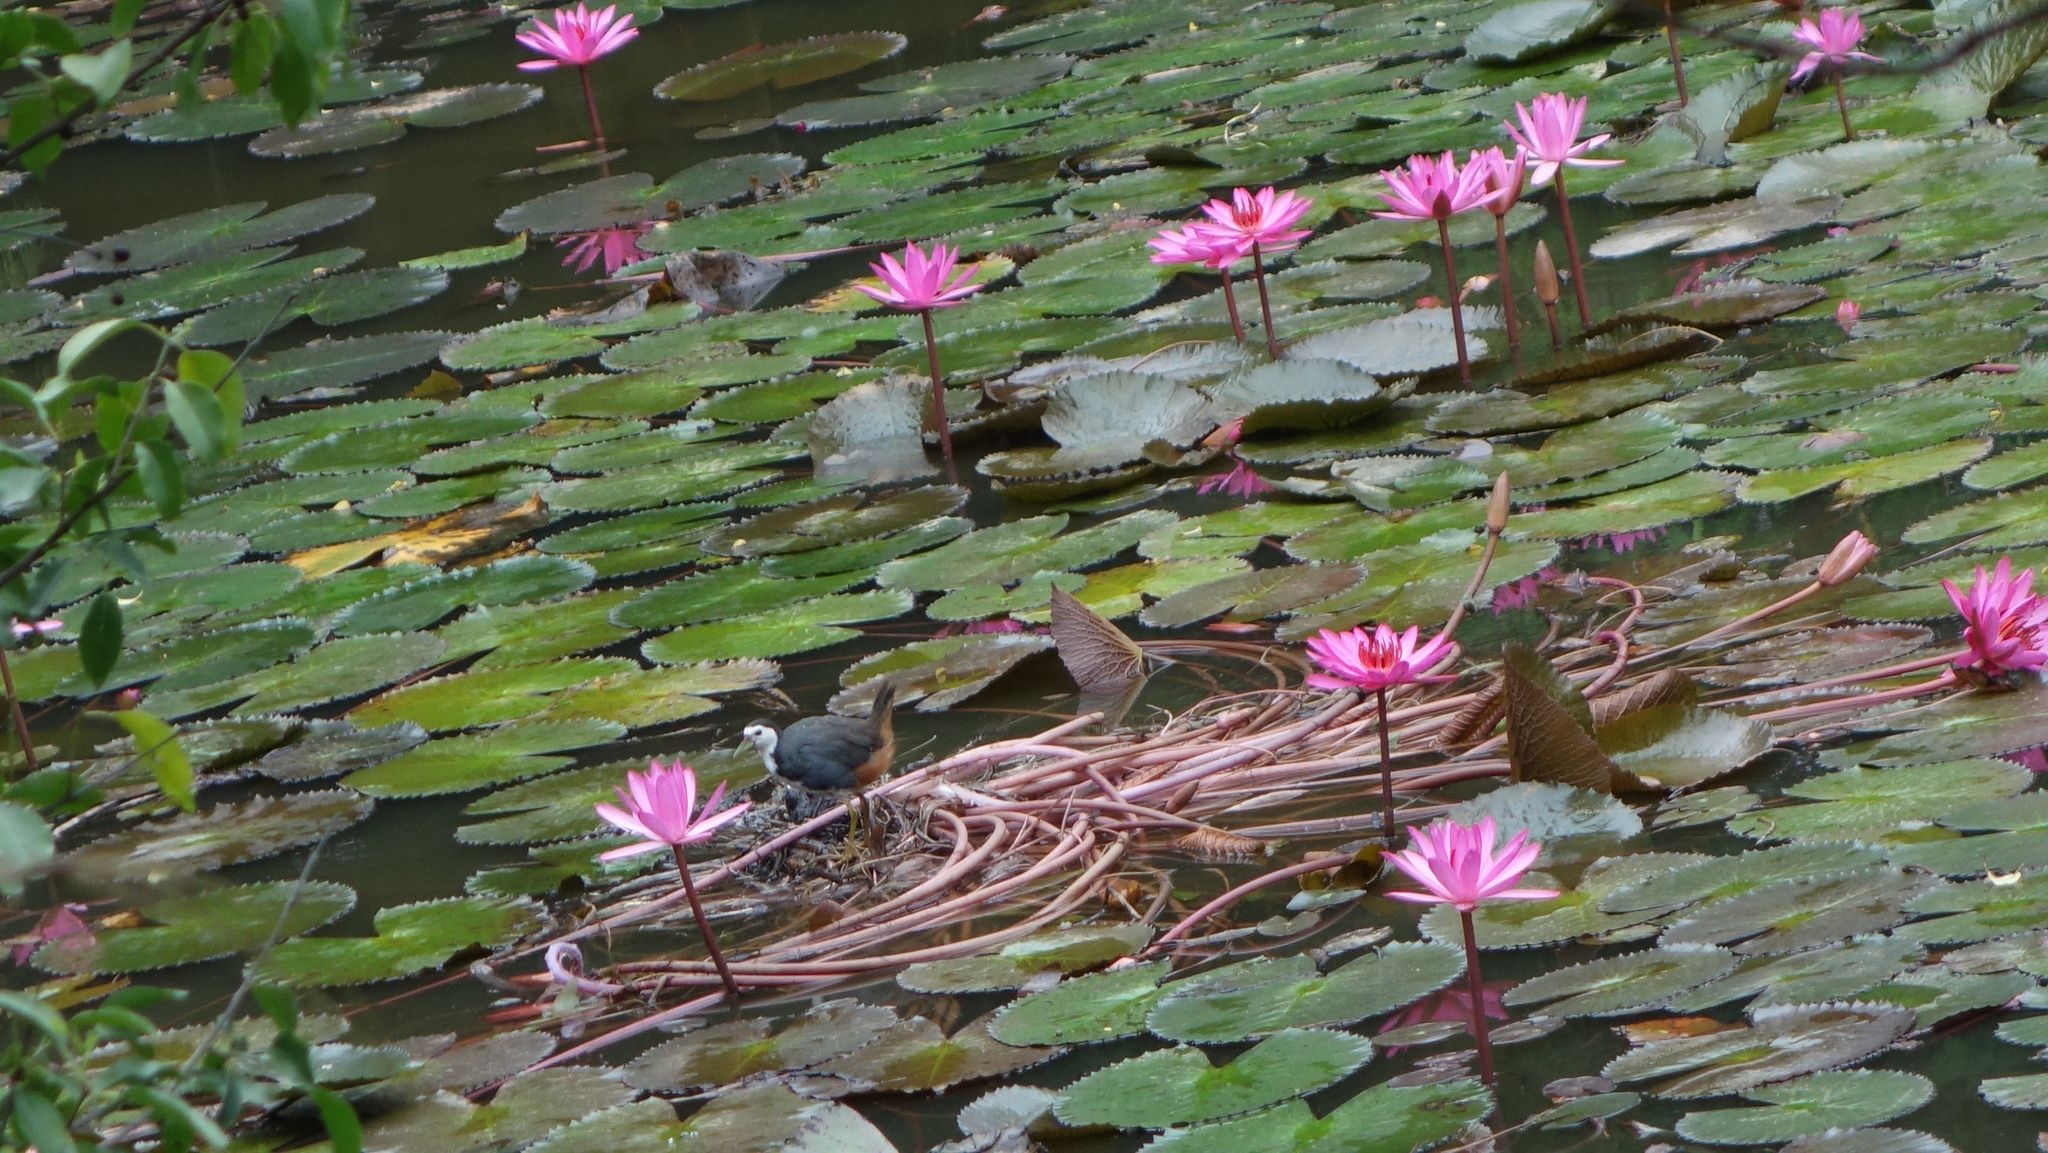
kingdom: Animalia
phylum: Chordata
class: Aves
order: Gruiformes
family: Rallidae
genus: Amaurornis
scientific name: Amaurornis phoenicurus
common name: White-breasted waterhen
